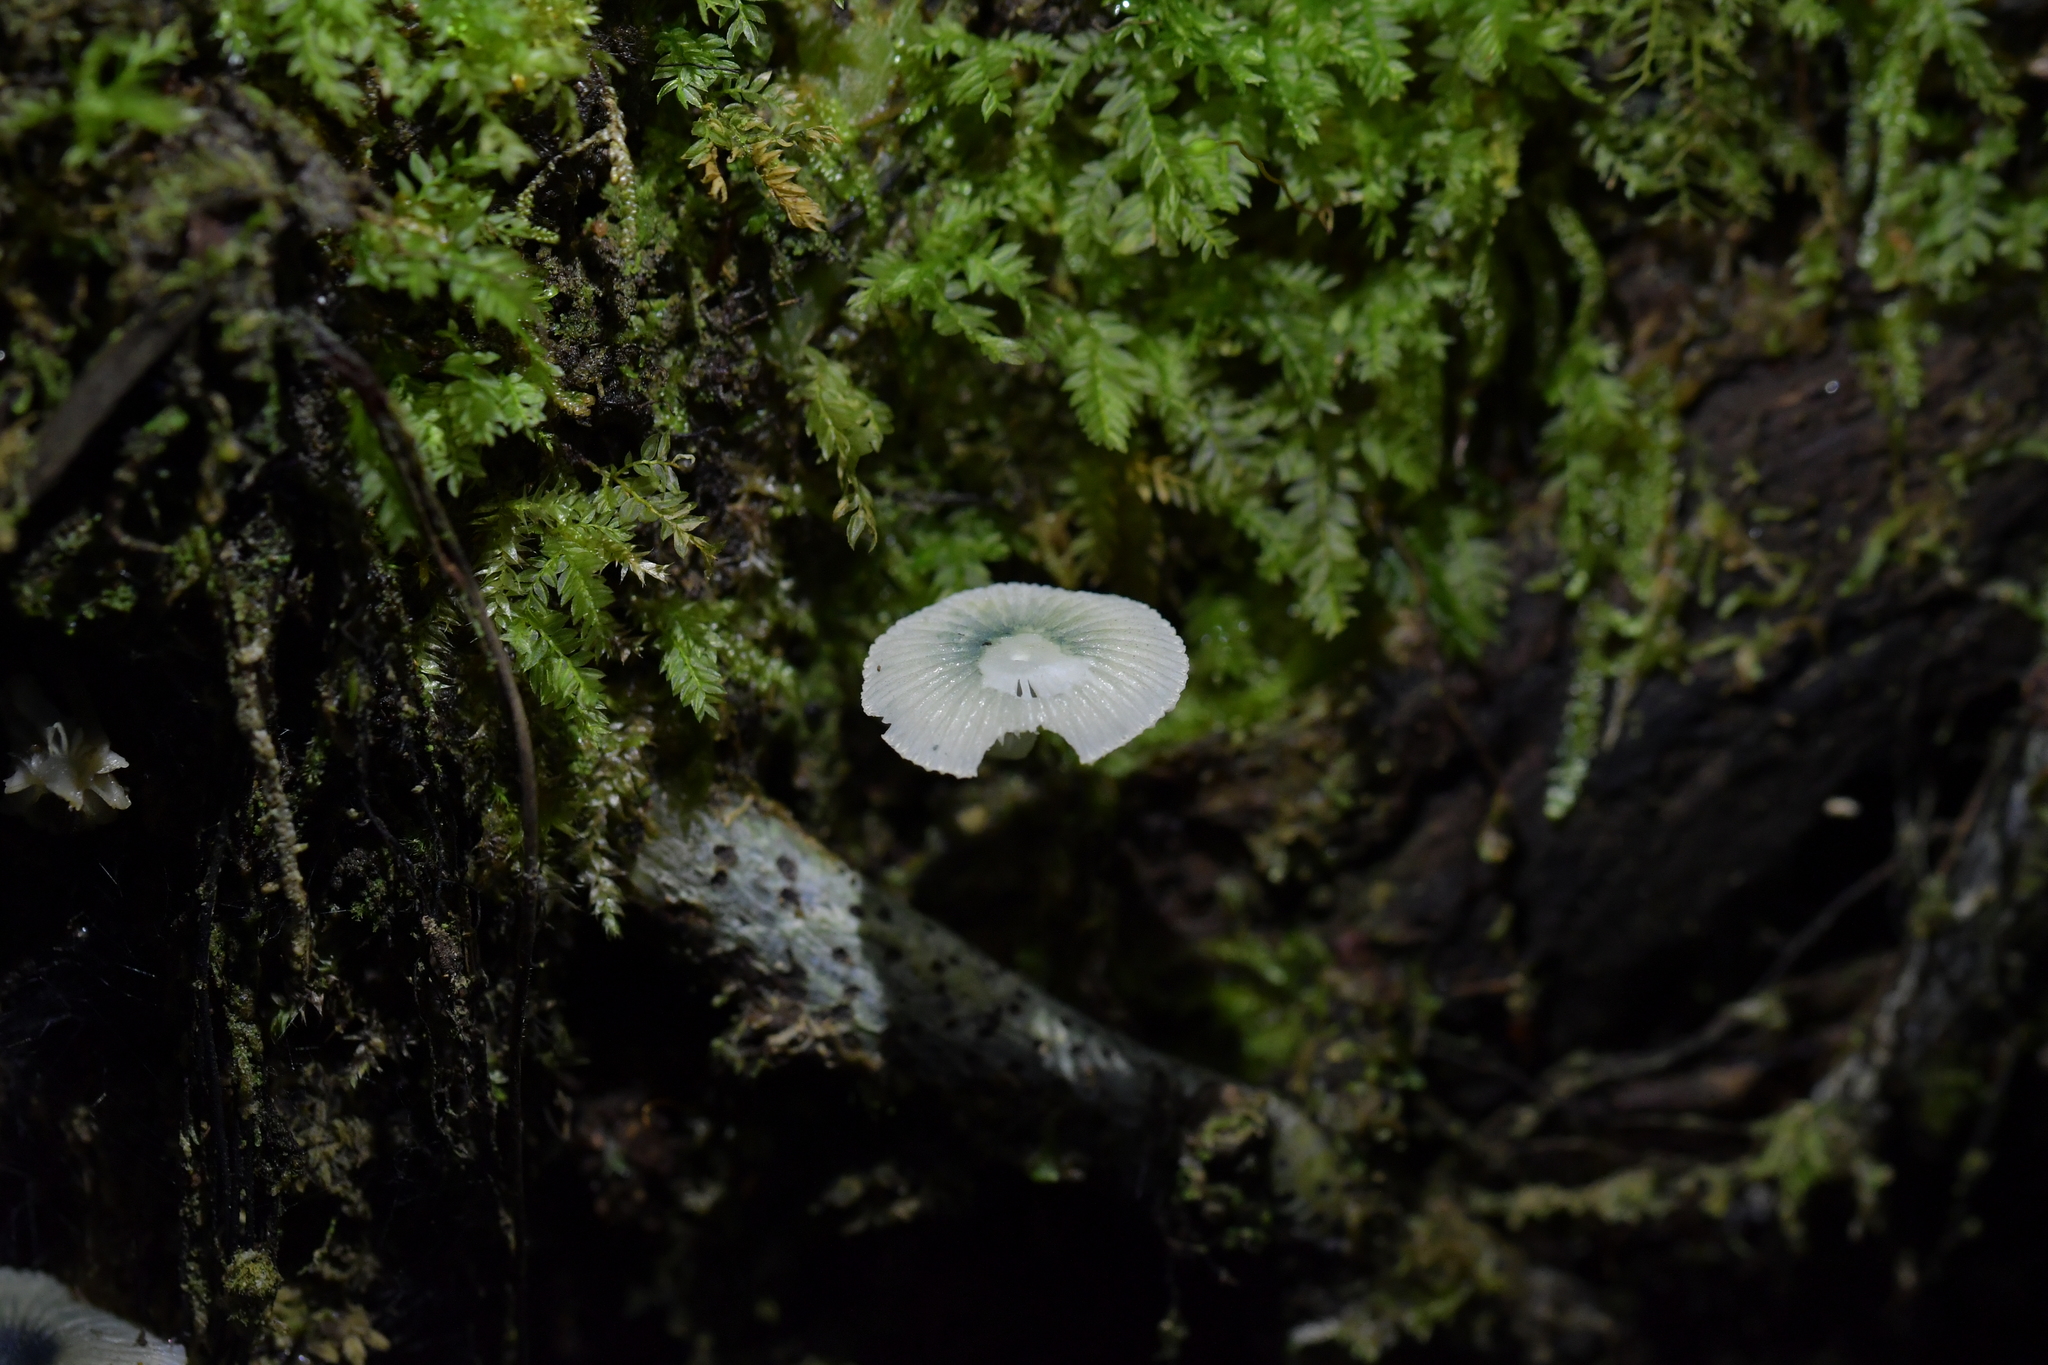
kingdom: Fungi
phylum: Basidiomycota
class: Agaricomycetes
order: Agaricales
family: Mycenaceae
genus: Mycena
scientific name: Mycena interrupta
